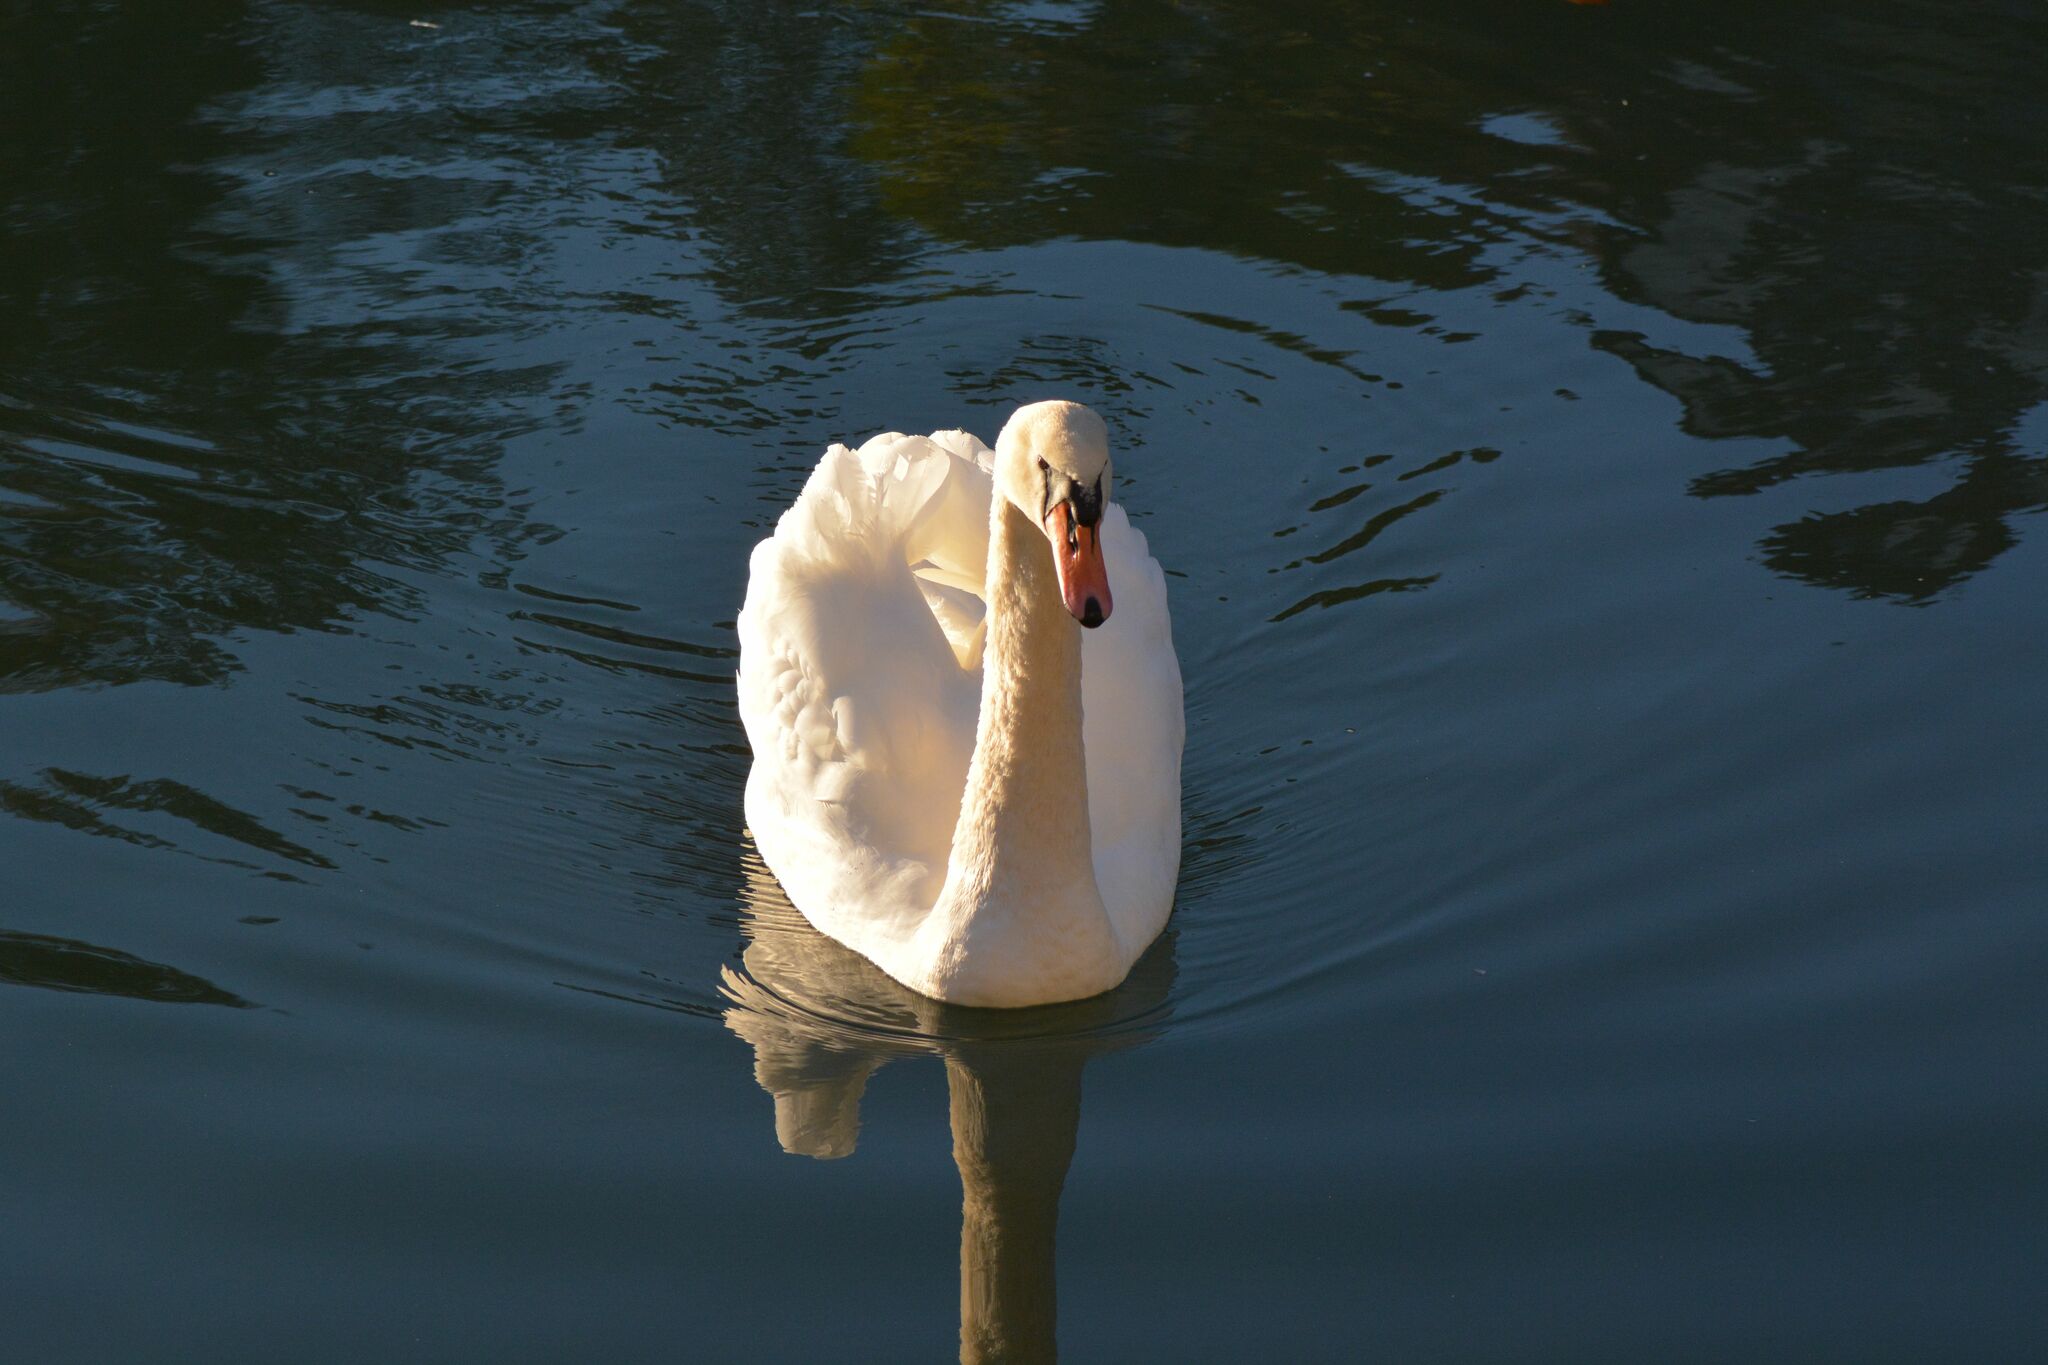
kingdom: Animalia
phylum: Chordata
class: Aves
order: Anseriformes
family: Anatidae
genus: Cygnus
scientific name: Cygnus olor
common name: Mute swan
